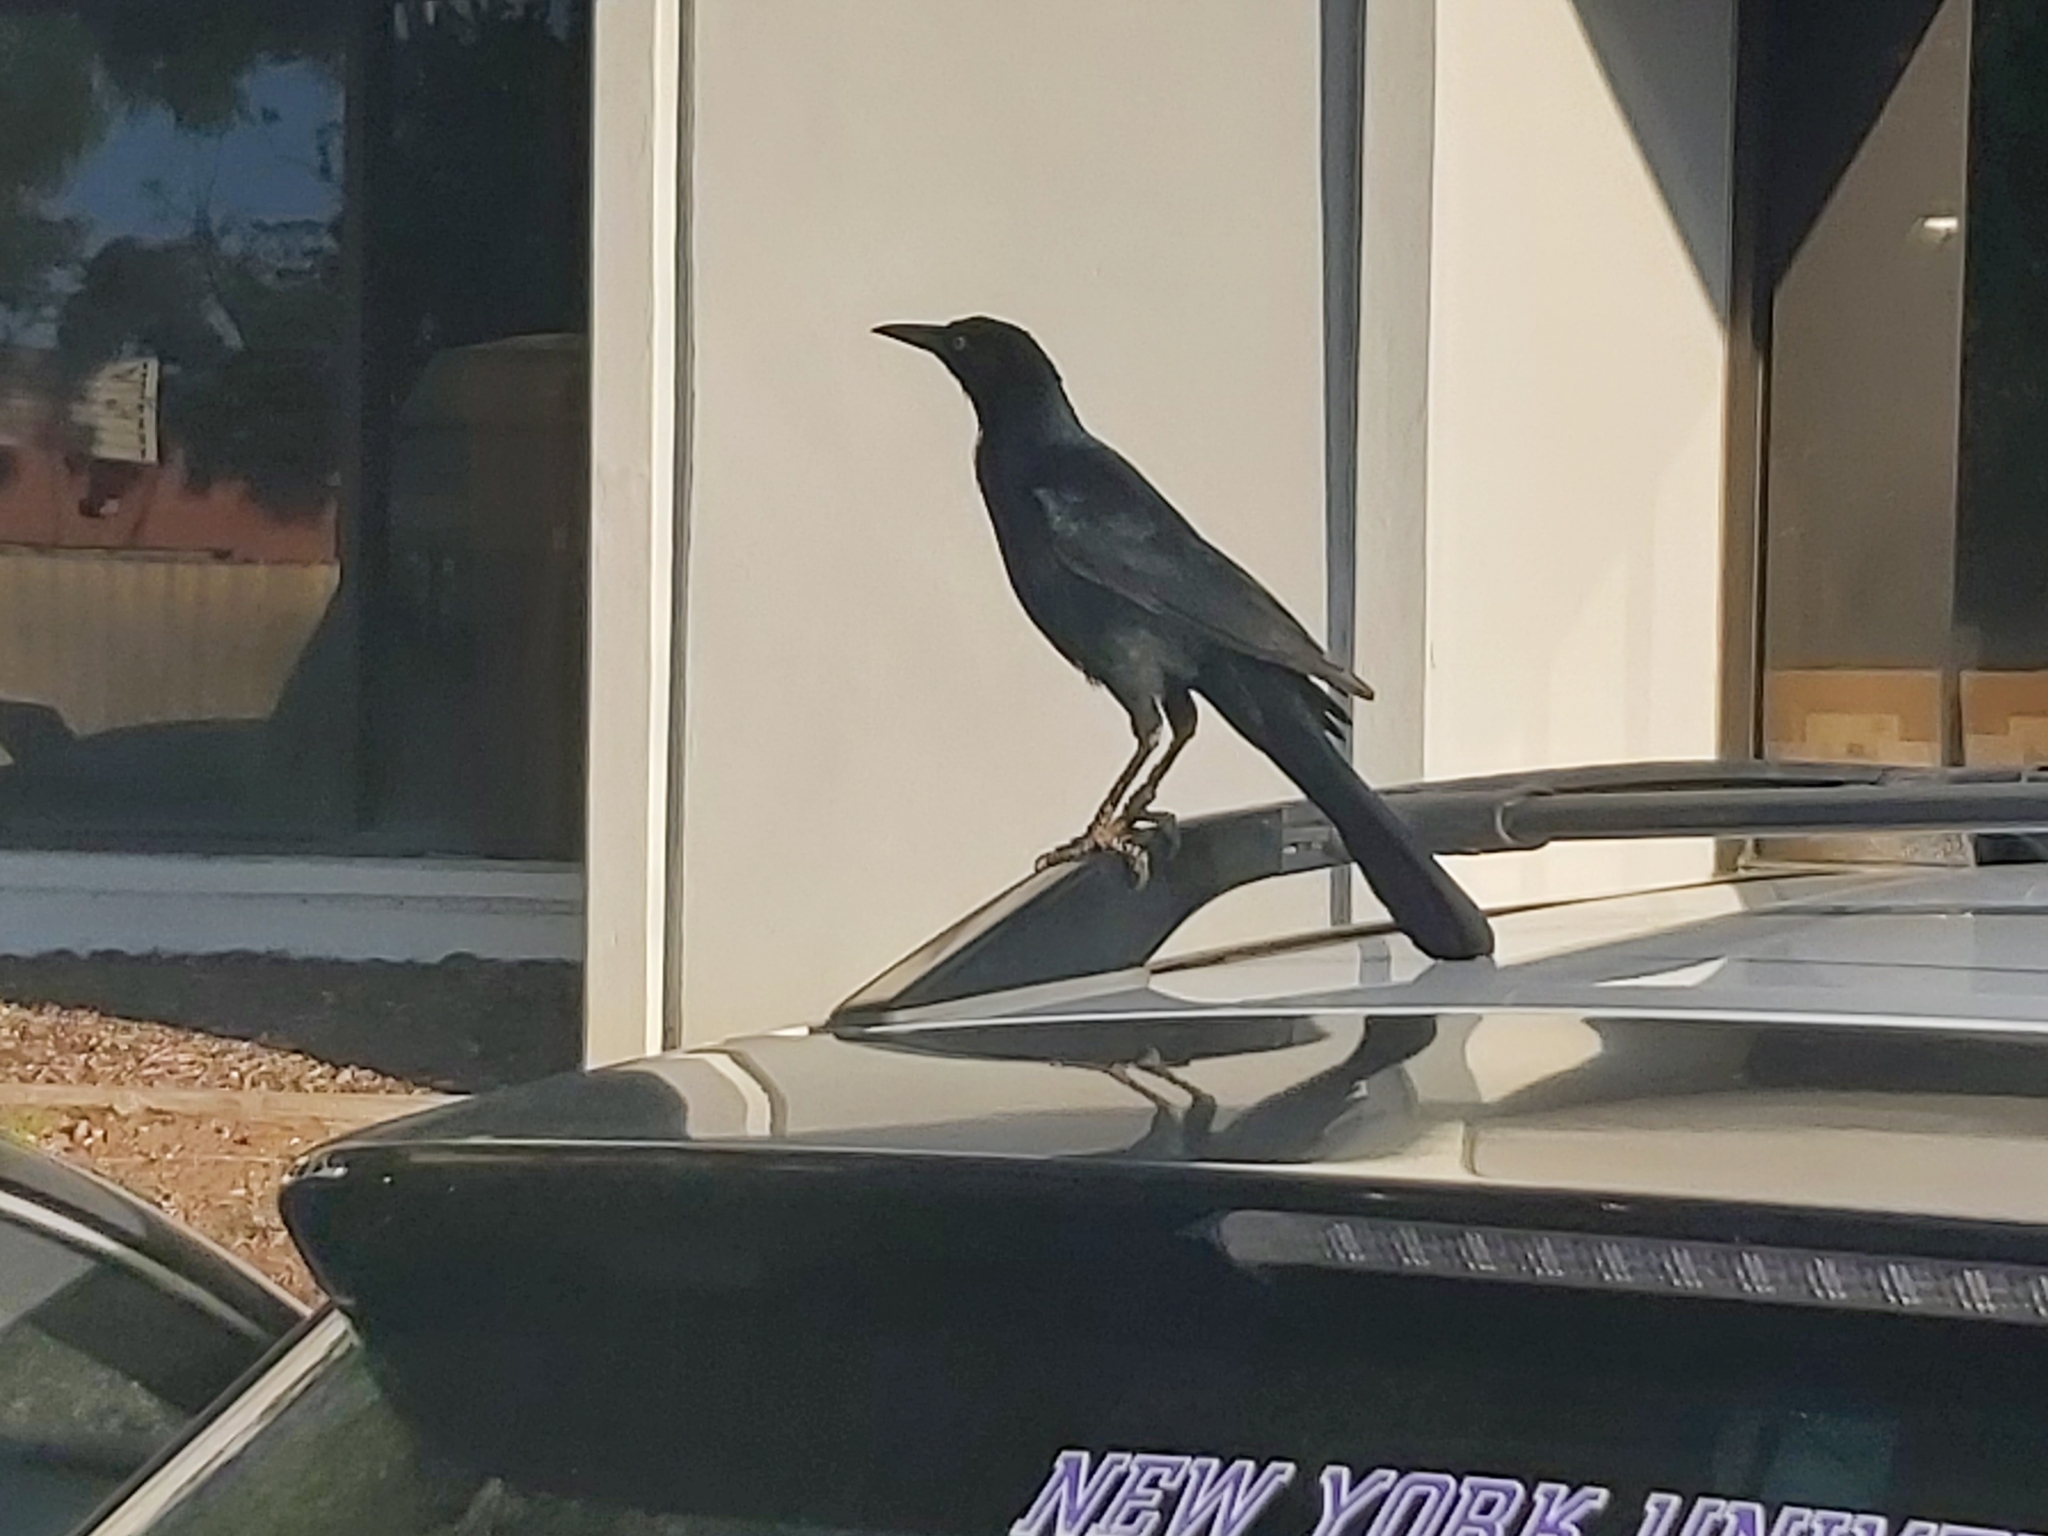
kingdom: Animalia
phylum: Chordata
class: Aves
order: Passeriformes
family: Icteridae
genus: Quiscalus
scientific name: Quiscalus mexicanus
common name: Great-tailed grackle
